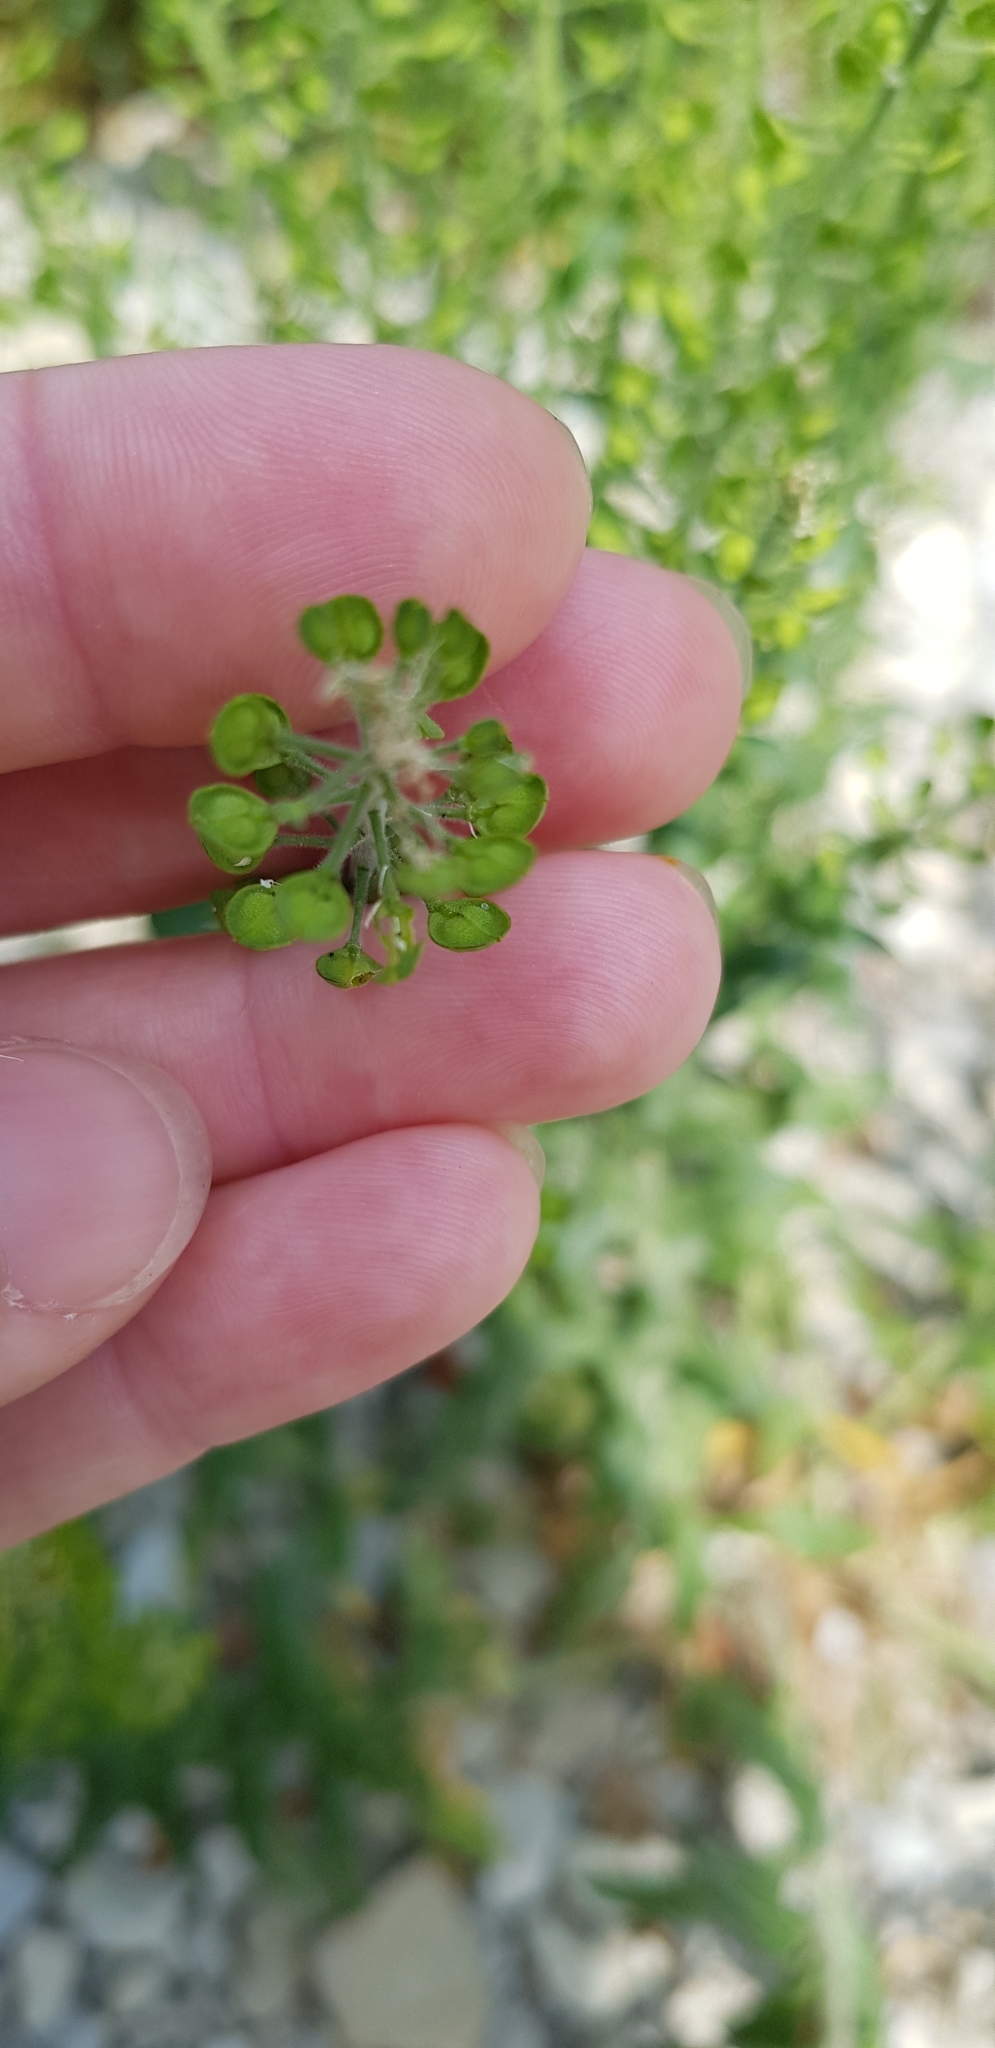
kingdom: Plantae
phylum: Tracheophyta
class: Magnoliopsida
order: Brassicales
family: Brassicaceae
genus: Lepidium
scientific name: Lepidium campestre
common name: Field pepperwort
